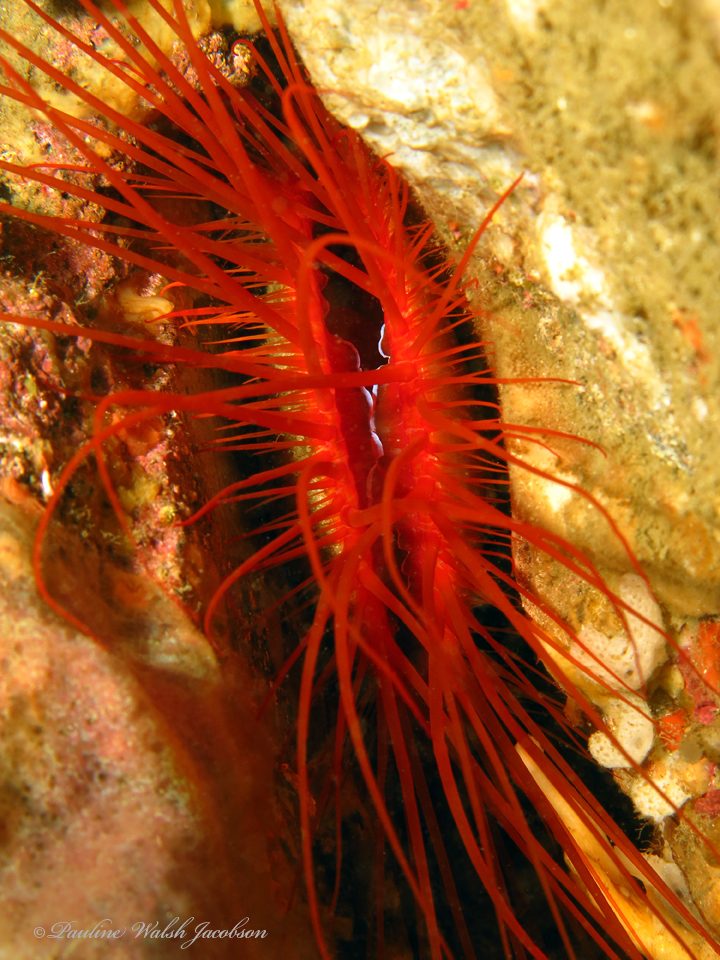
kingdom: Animalia
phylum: Mollusca
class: Bivalvia
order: Limida
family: Limidae
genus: Ctenoides
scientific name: Ctenoides ales
